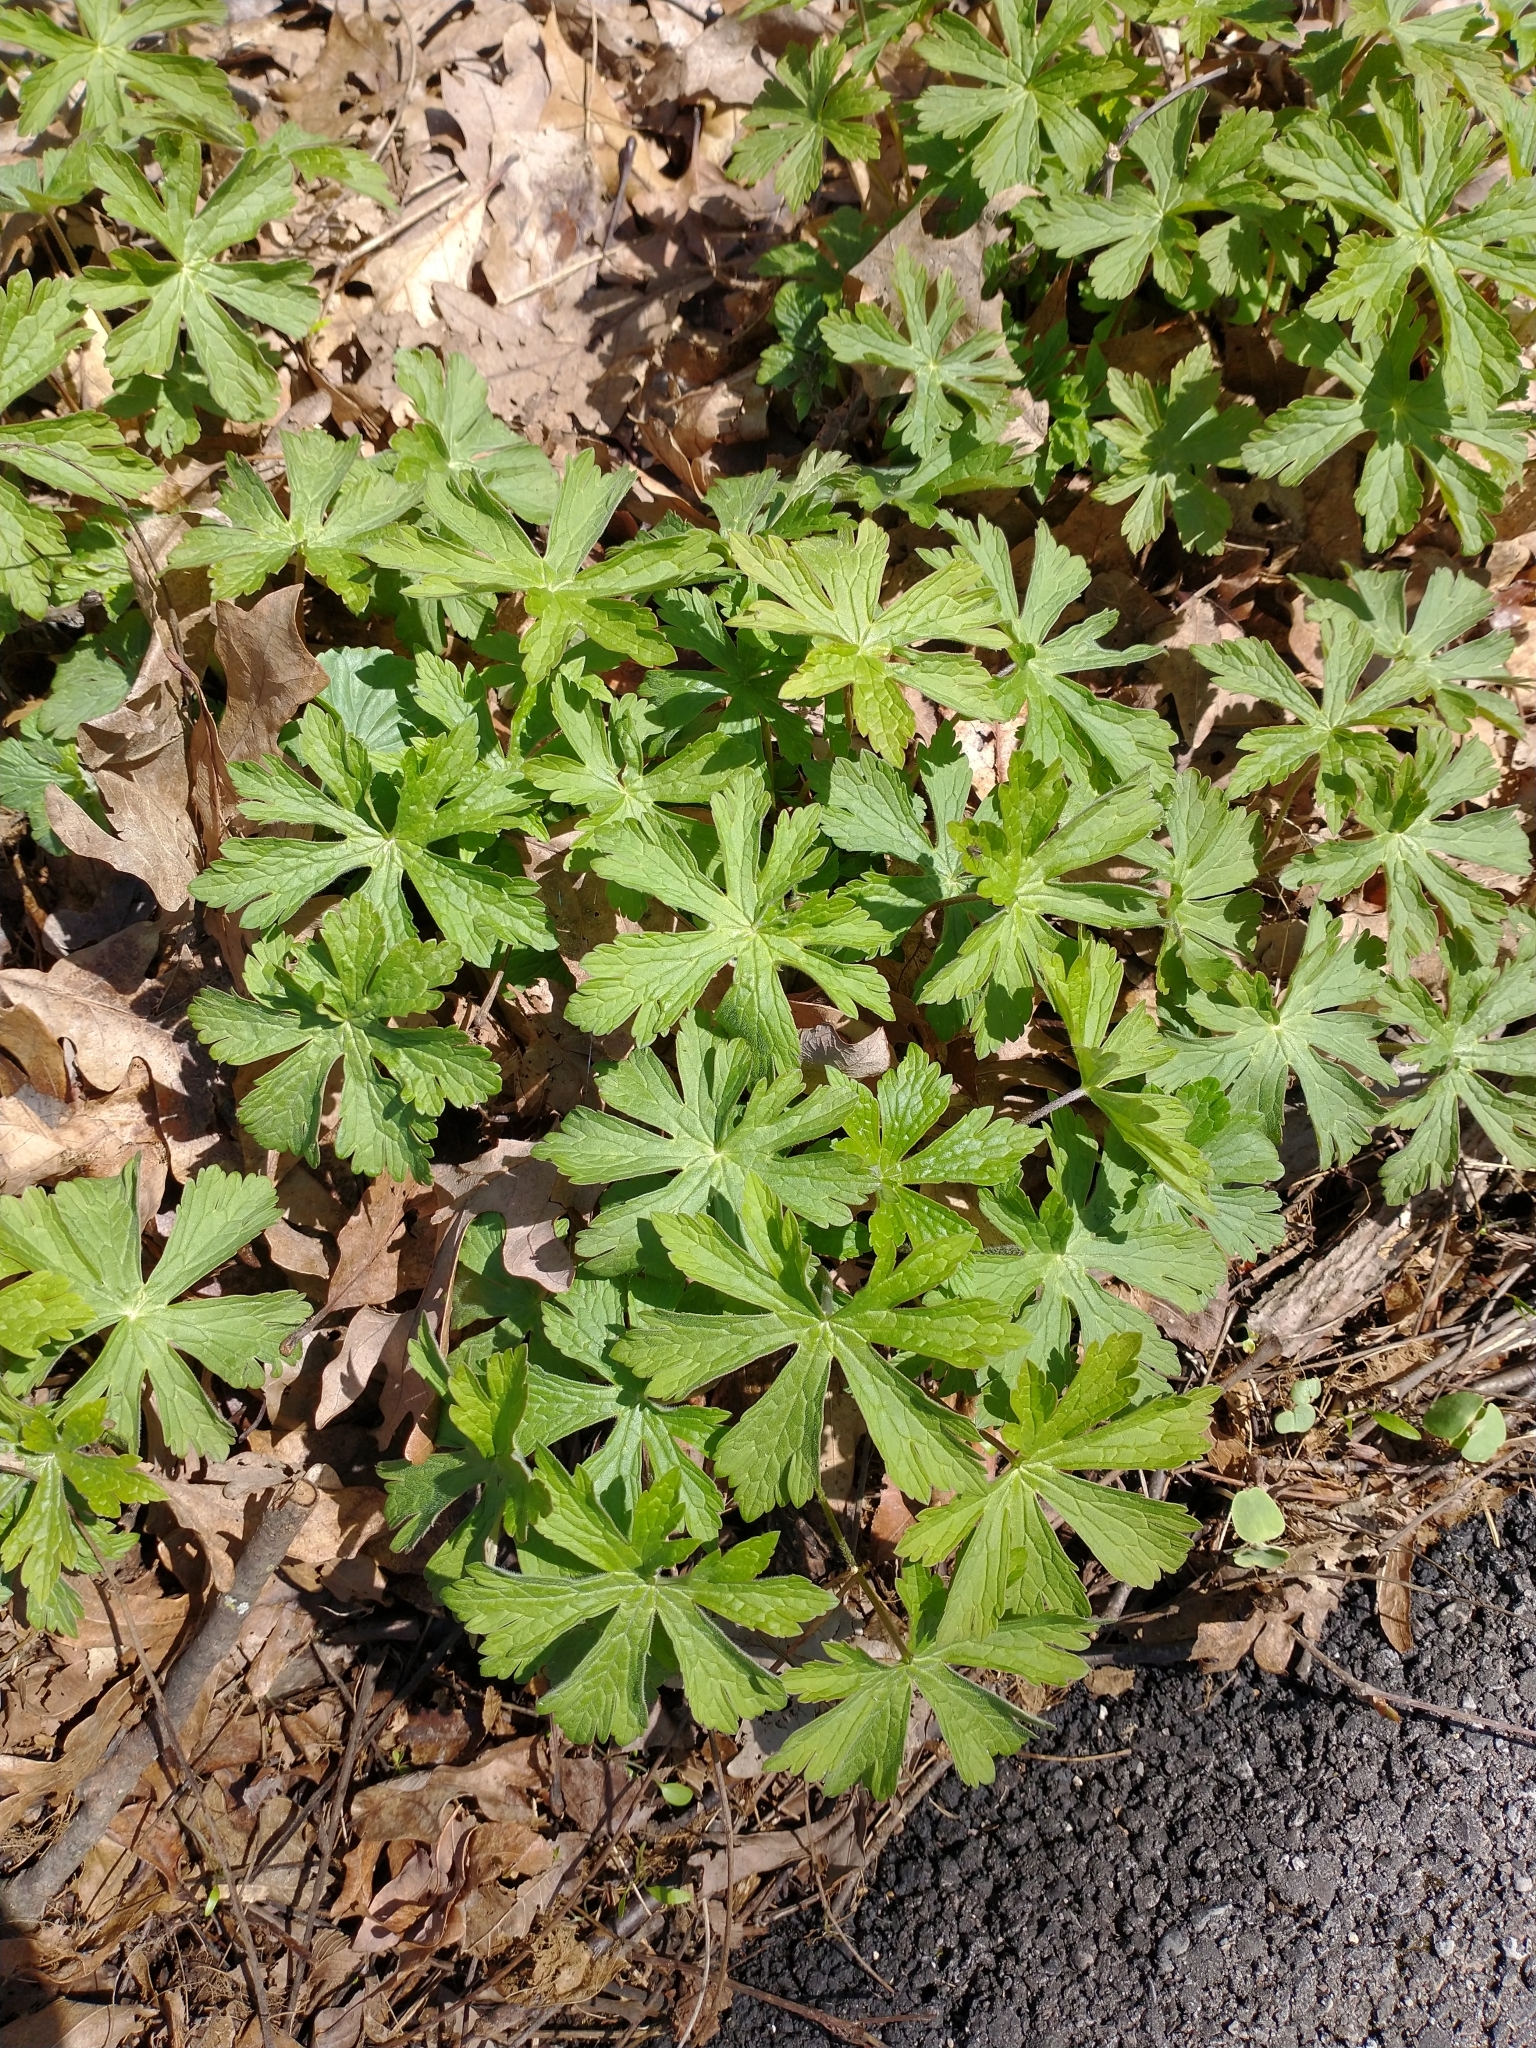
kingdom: Plantae
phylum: Tracheophyta
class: Magnoliopsida
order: Geraniales
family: Geraniaceae
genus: Geranium
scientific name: Geranium maculatum
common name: Spotted geranium
